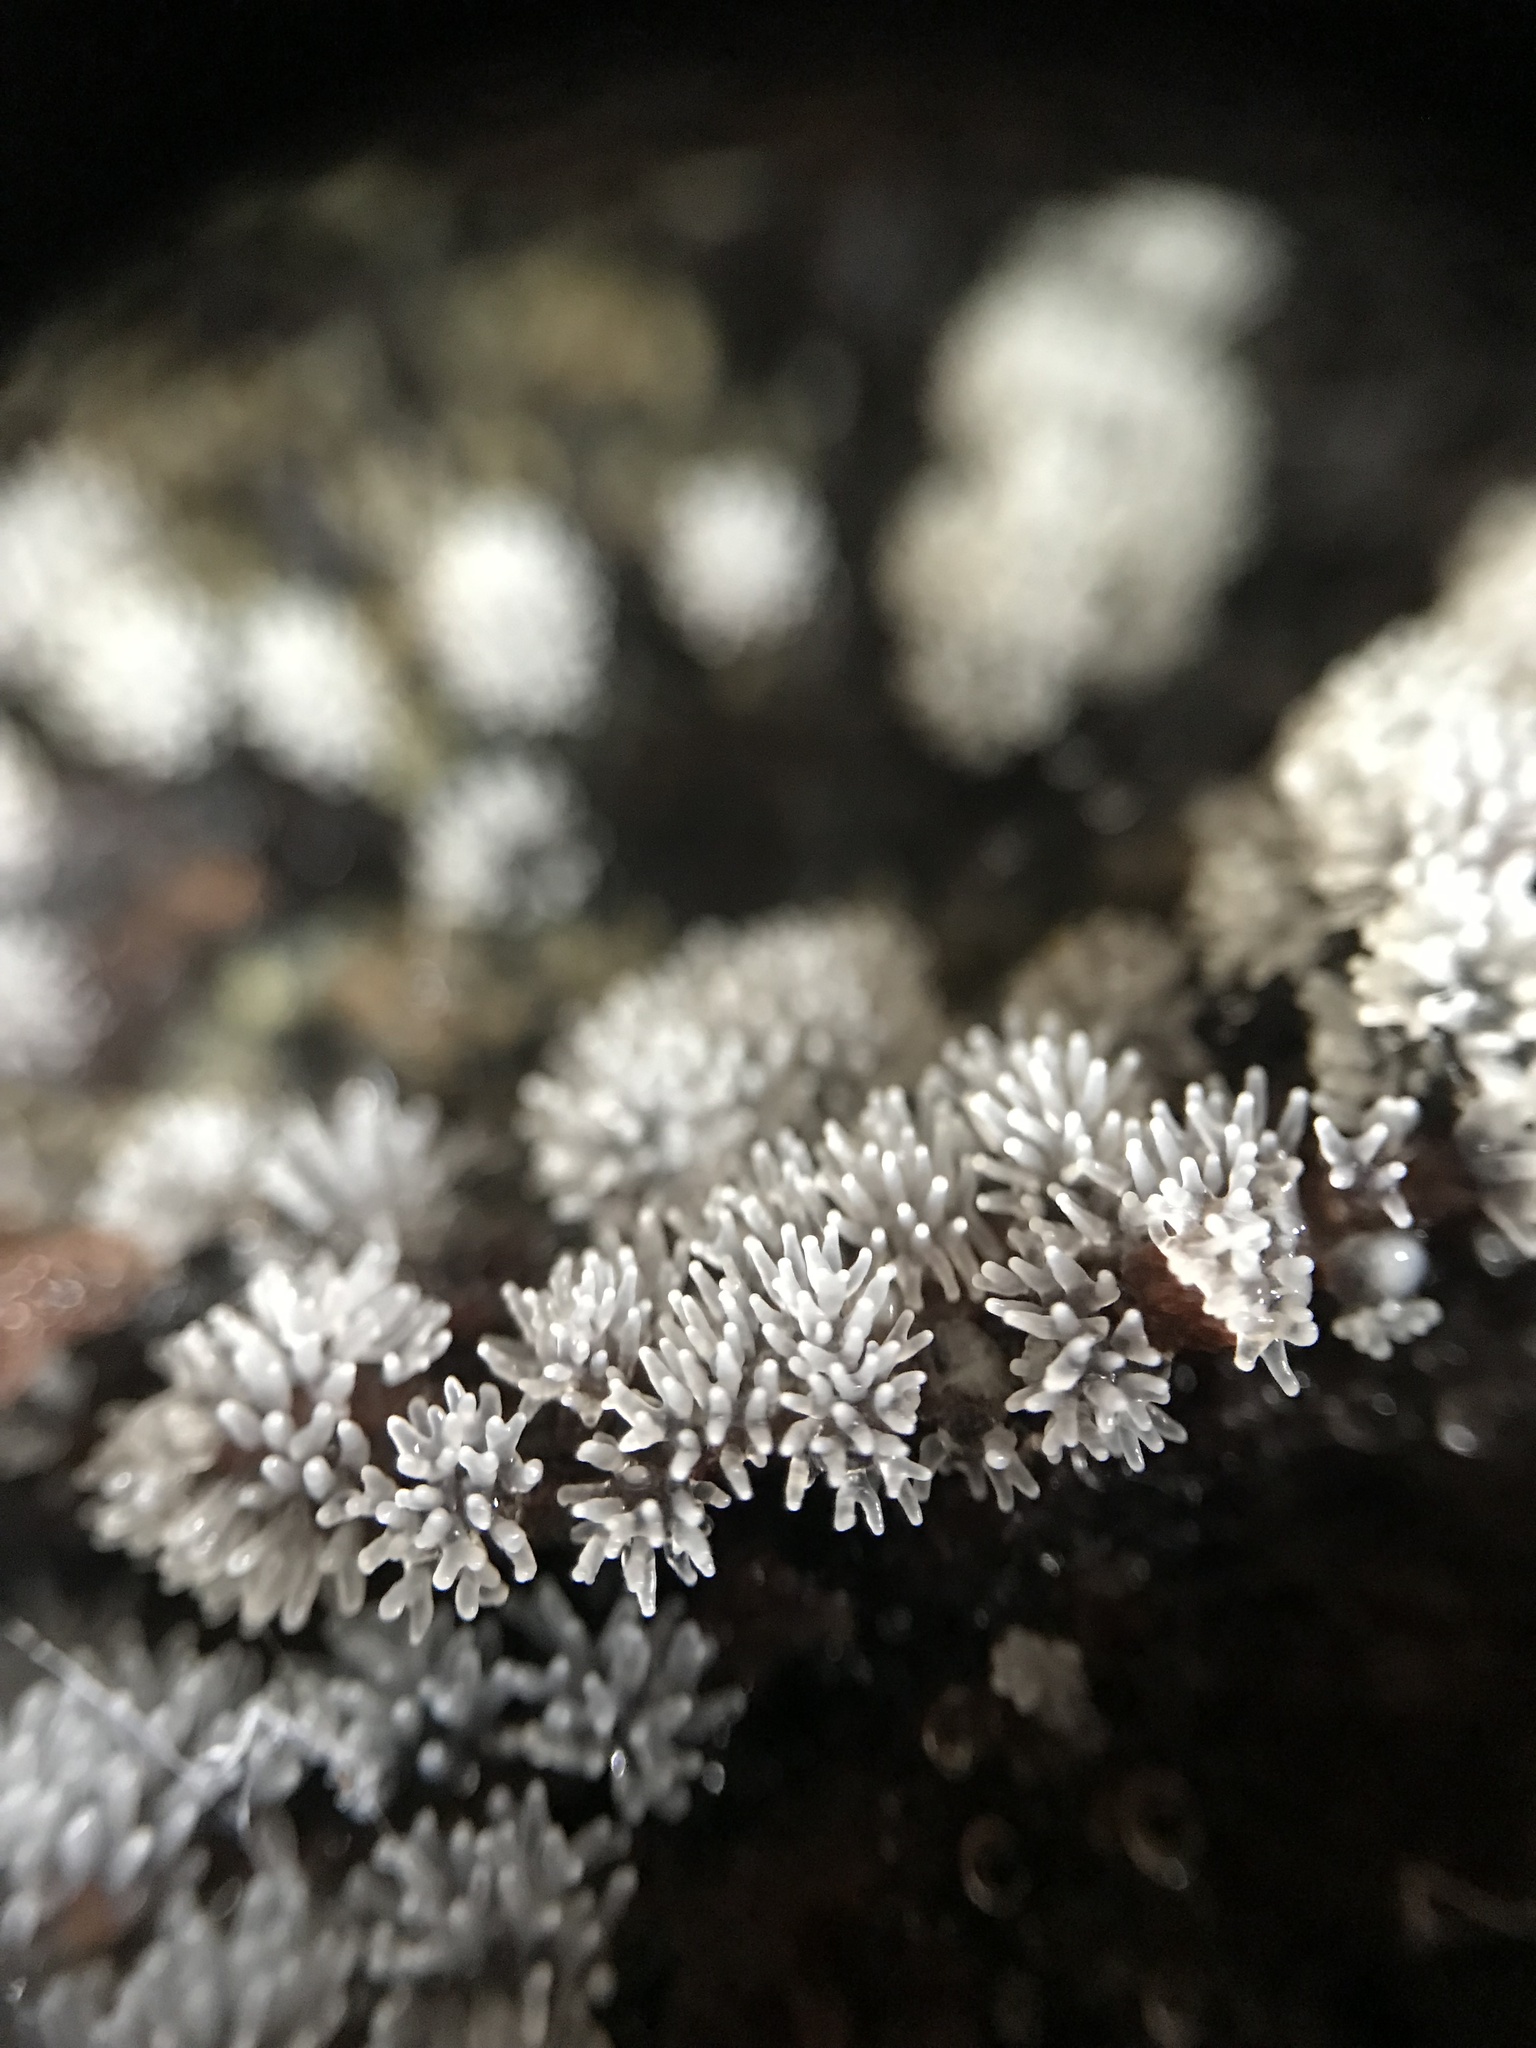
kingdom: Protozoa
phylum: Mycetozoa
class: Protosteliomycetes
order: Ceratiomyxales
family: Ceratiomyxaceae
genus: Ceratiomyxa
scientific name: Ceratiomyxa fruticulosa
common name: Honeycomb coral slime mold
